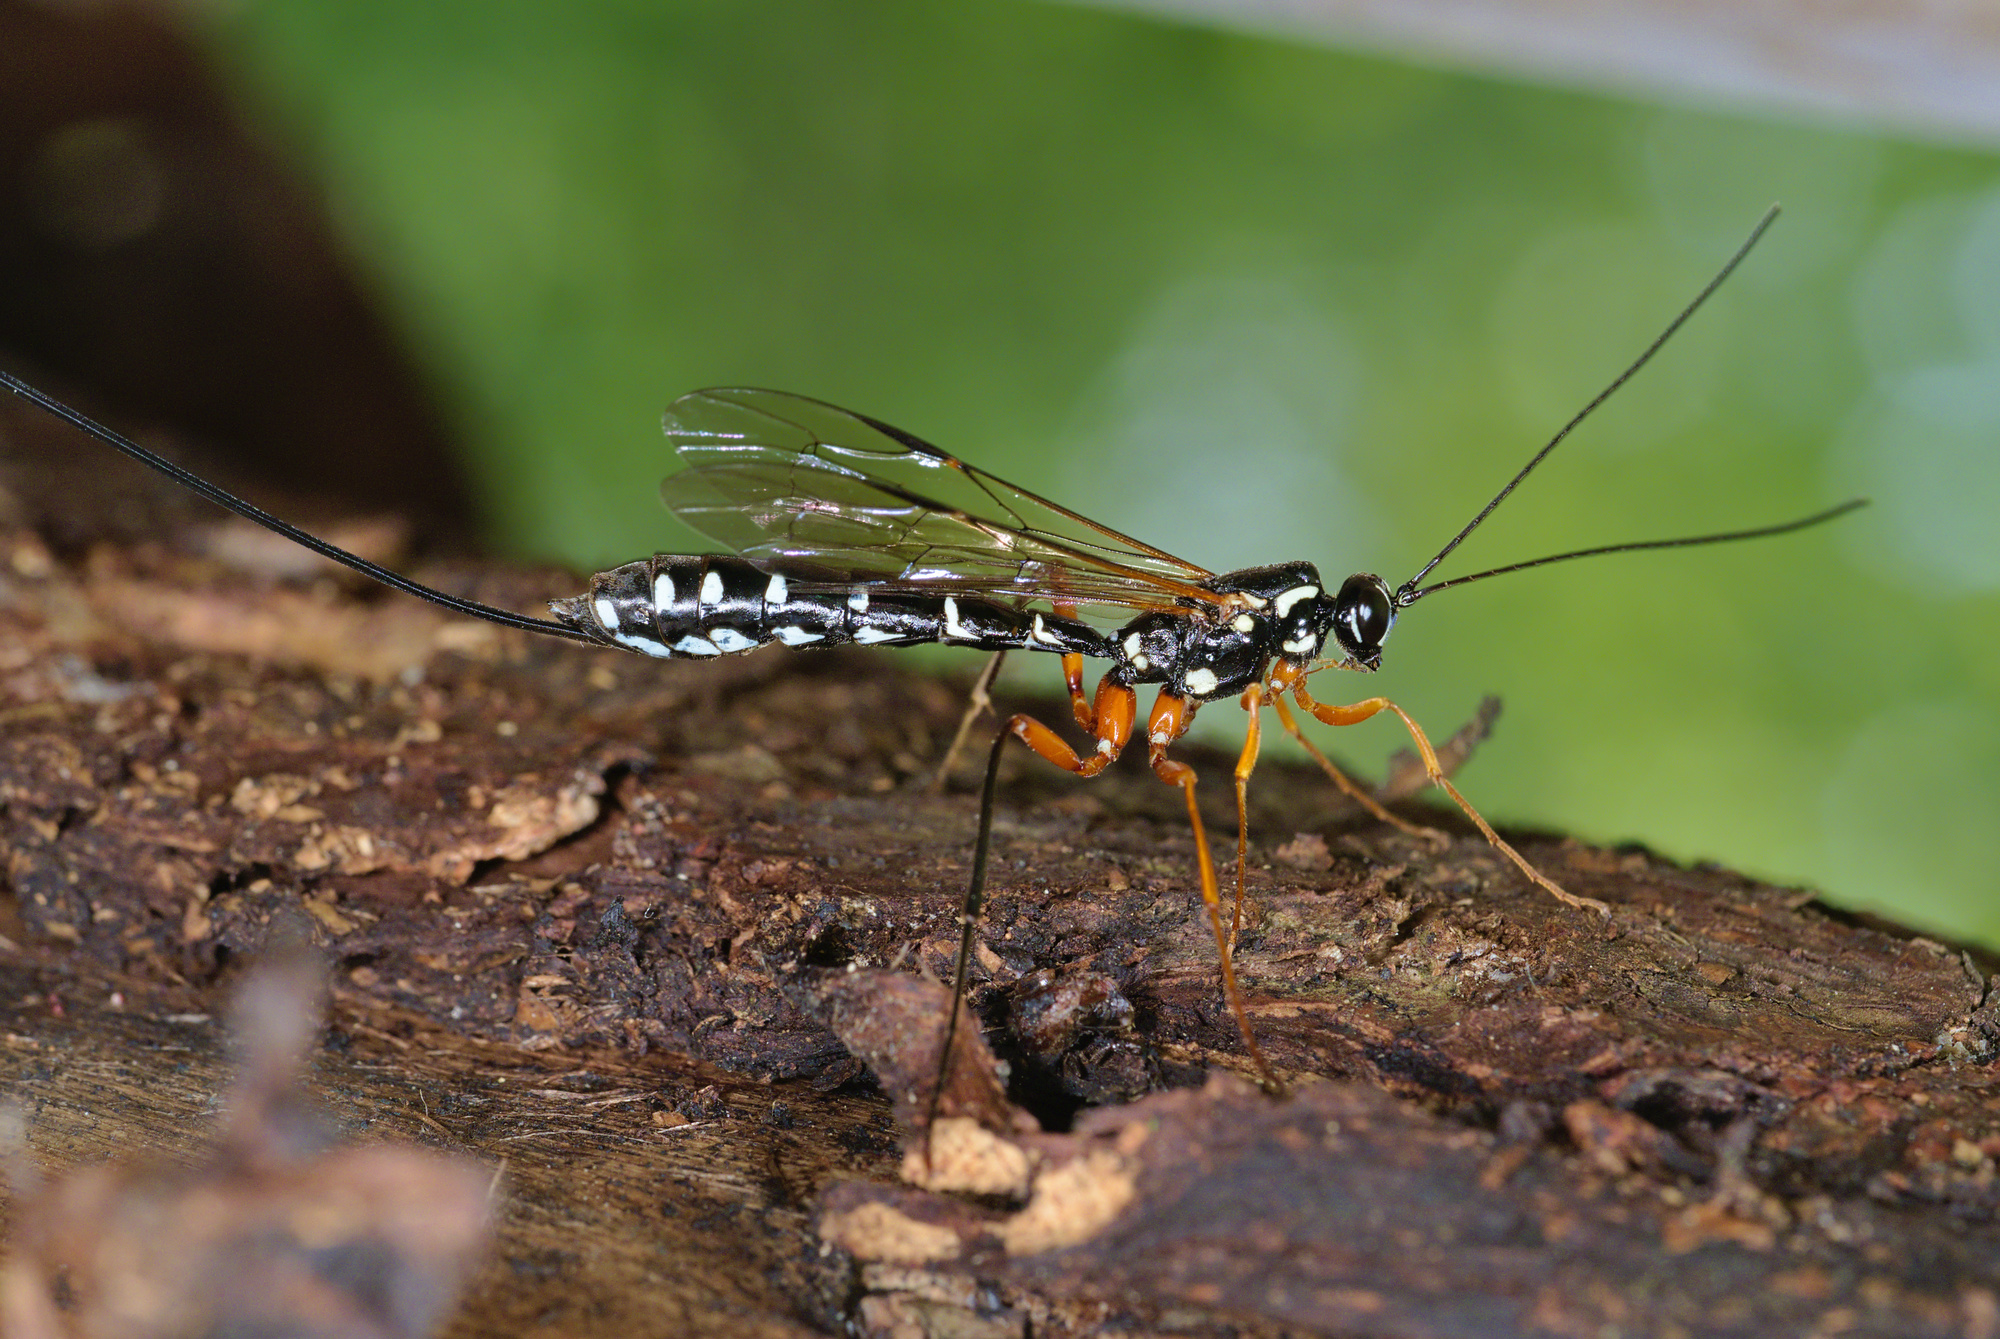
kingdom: Animalia
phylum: Arthropoda
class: Insecta
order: Hymenoptera
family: Ichneumonidae
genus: Rhyssa
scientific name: Rhyssa persuasoria
